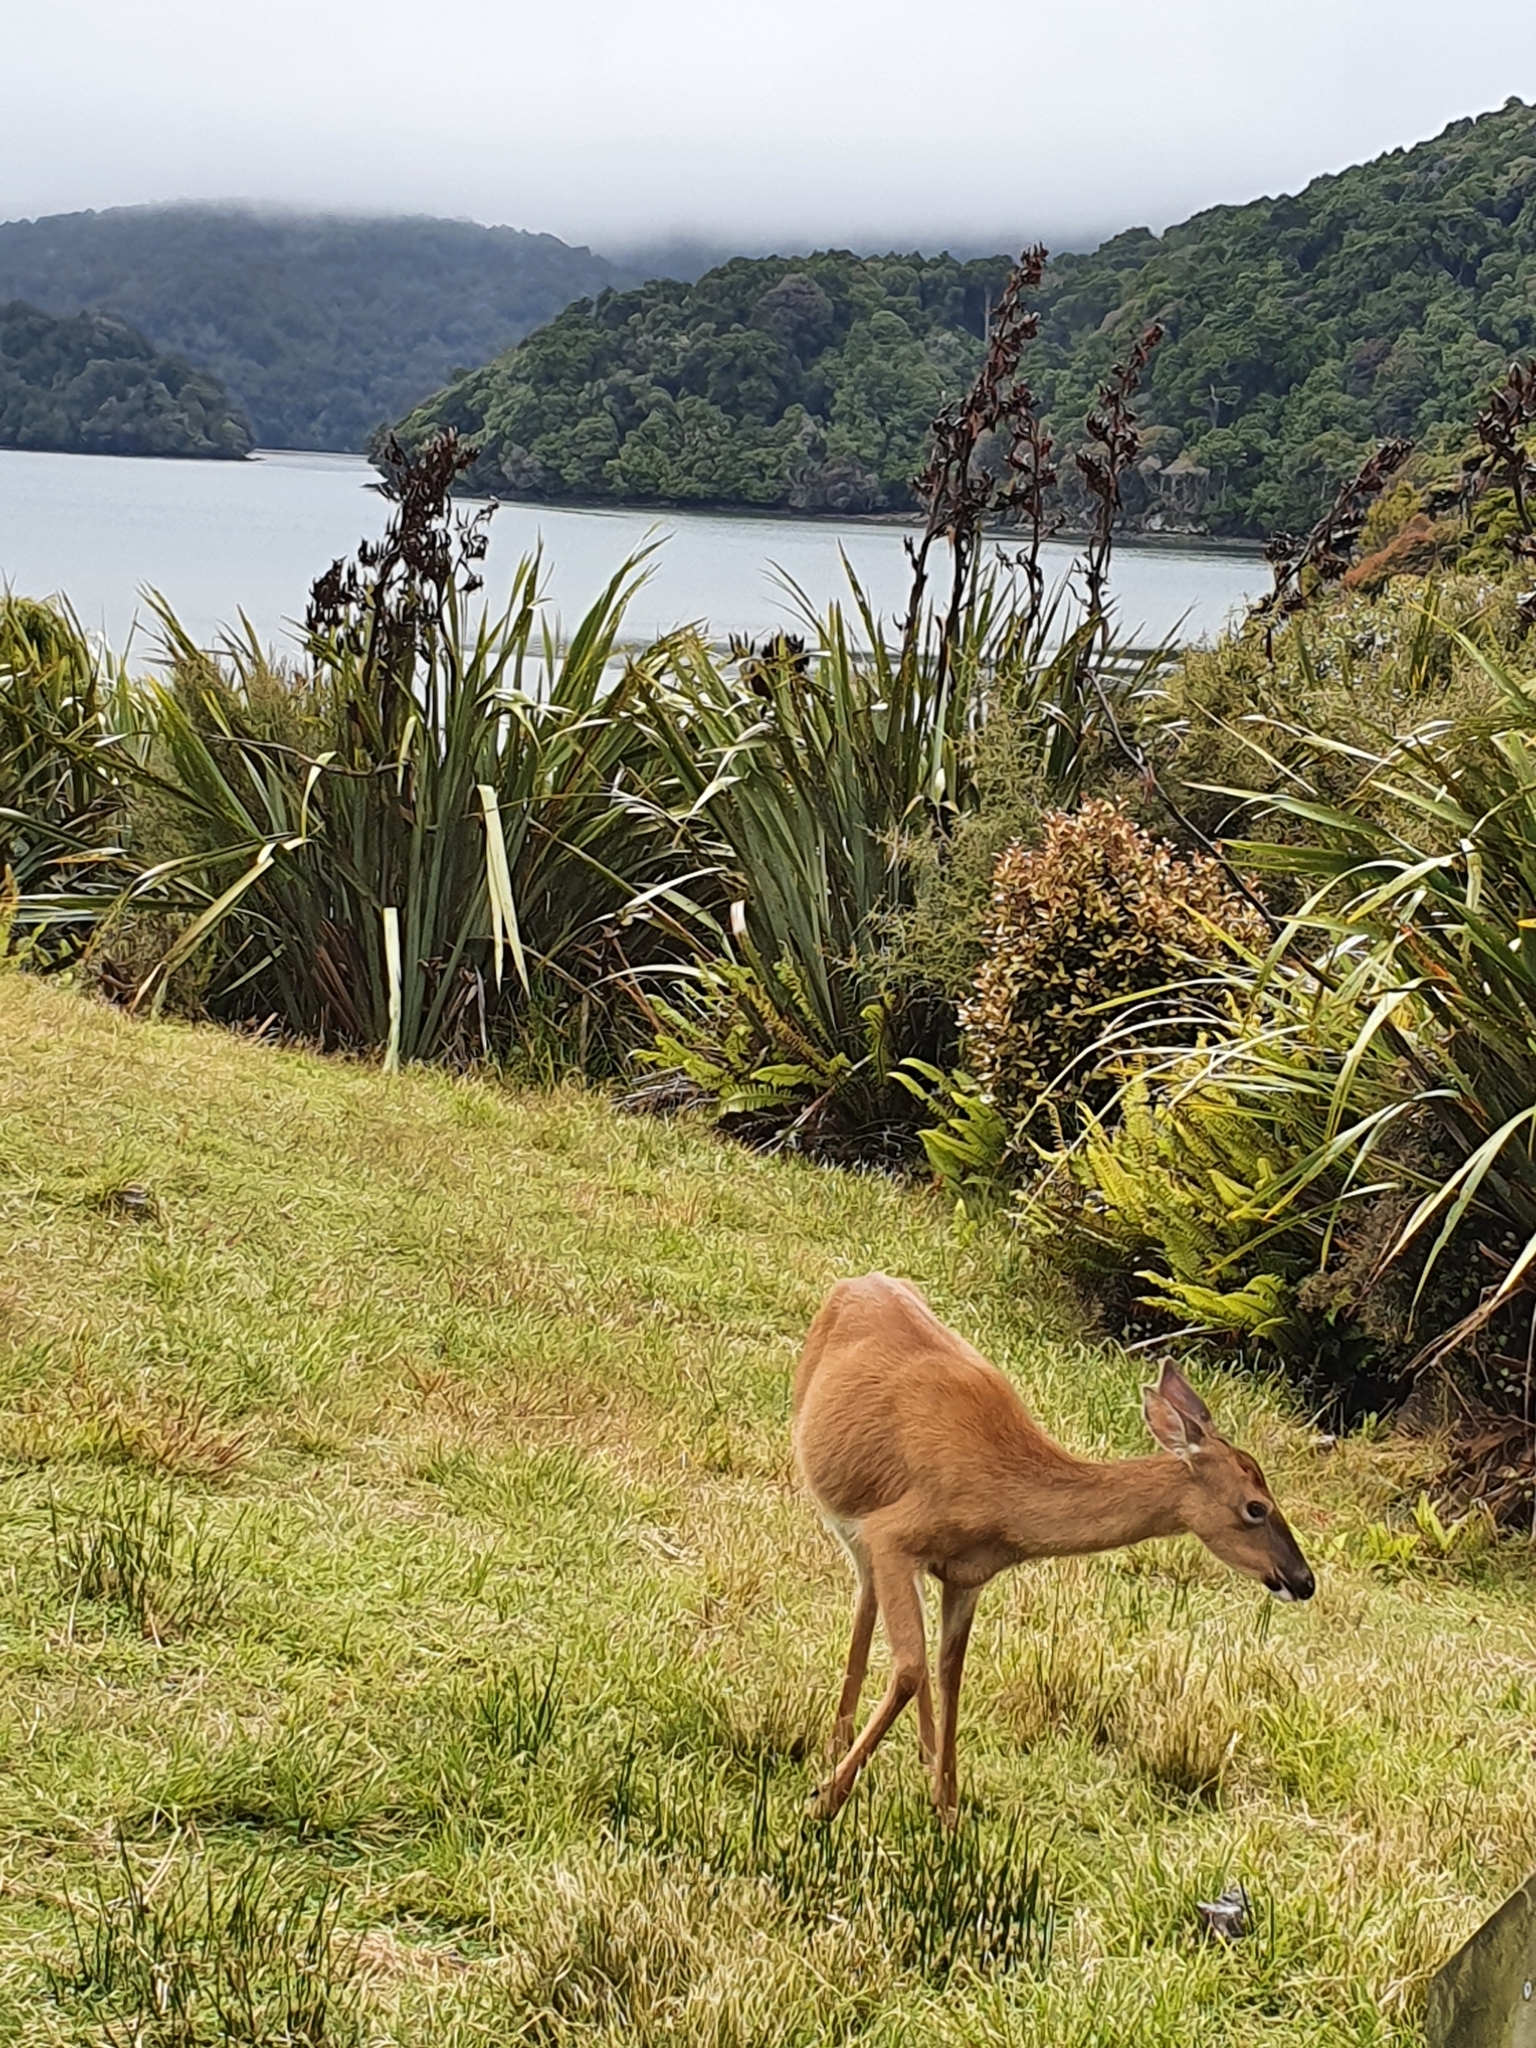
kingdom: Animalia
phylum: Chordata
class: Mammalia
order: Artiodactyla
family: Cervidae
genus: Odocoileus
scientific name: Odocoileus virginianus
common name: White-tailed deer
